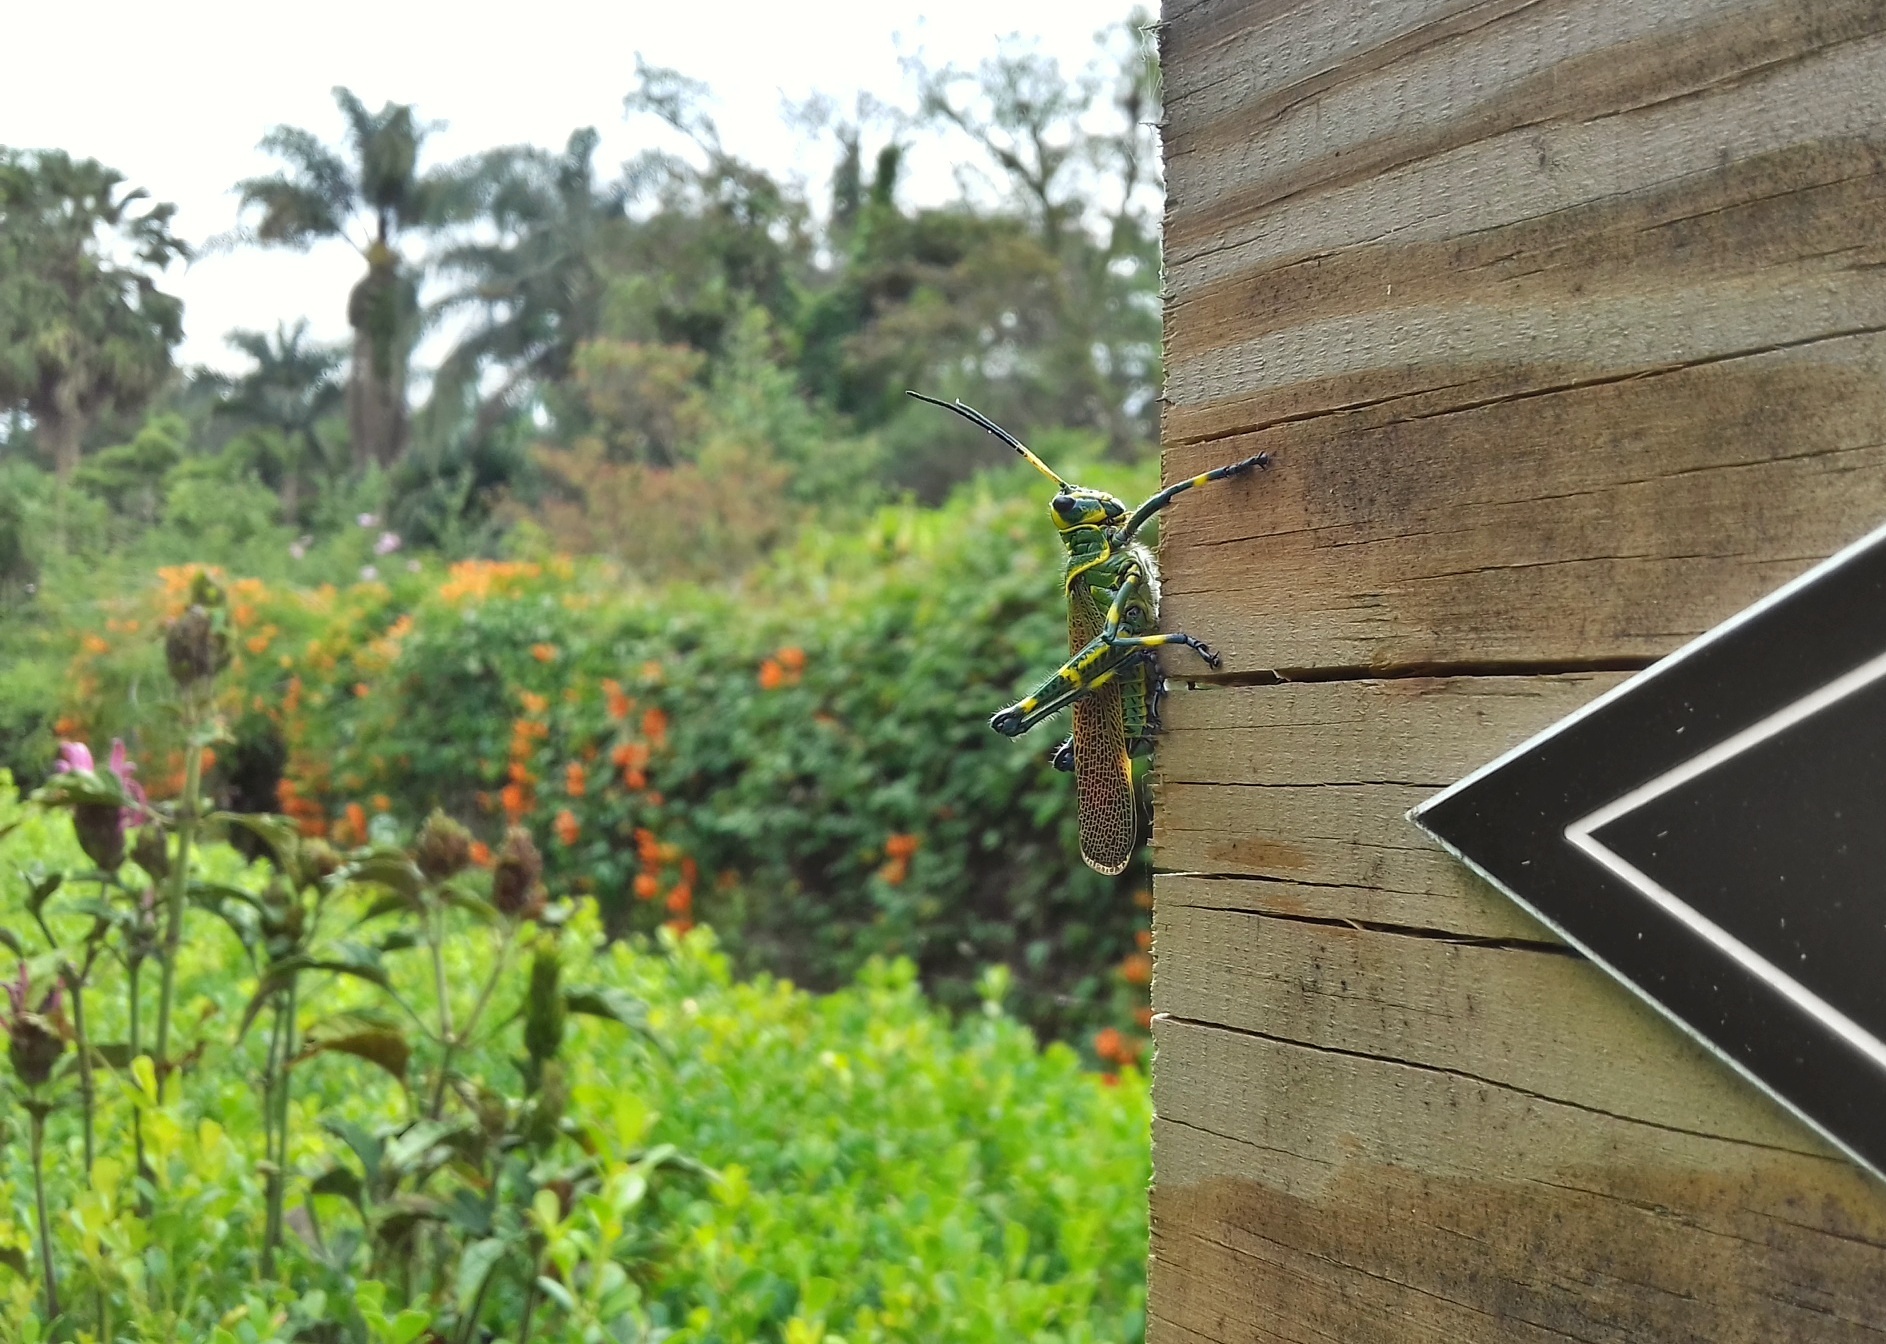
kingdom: Animalia
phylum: Arthropoda
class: Insecta
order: Orthoptera
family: Romaleidae
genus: Chromacris
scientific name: Chromacris colorata
